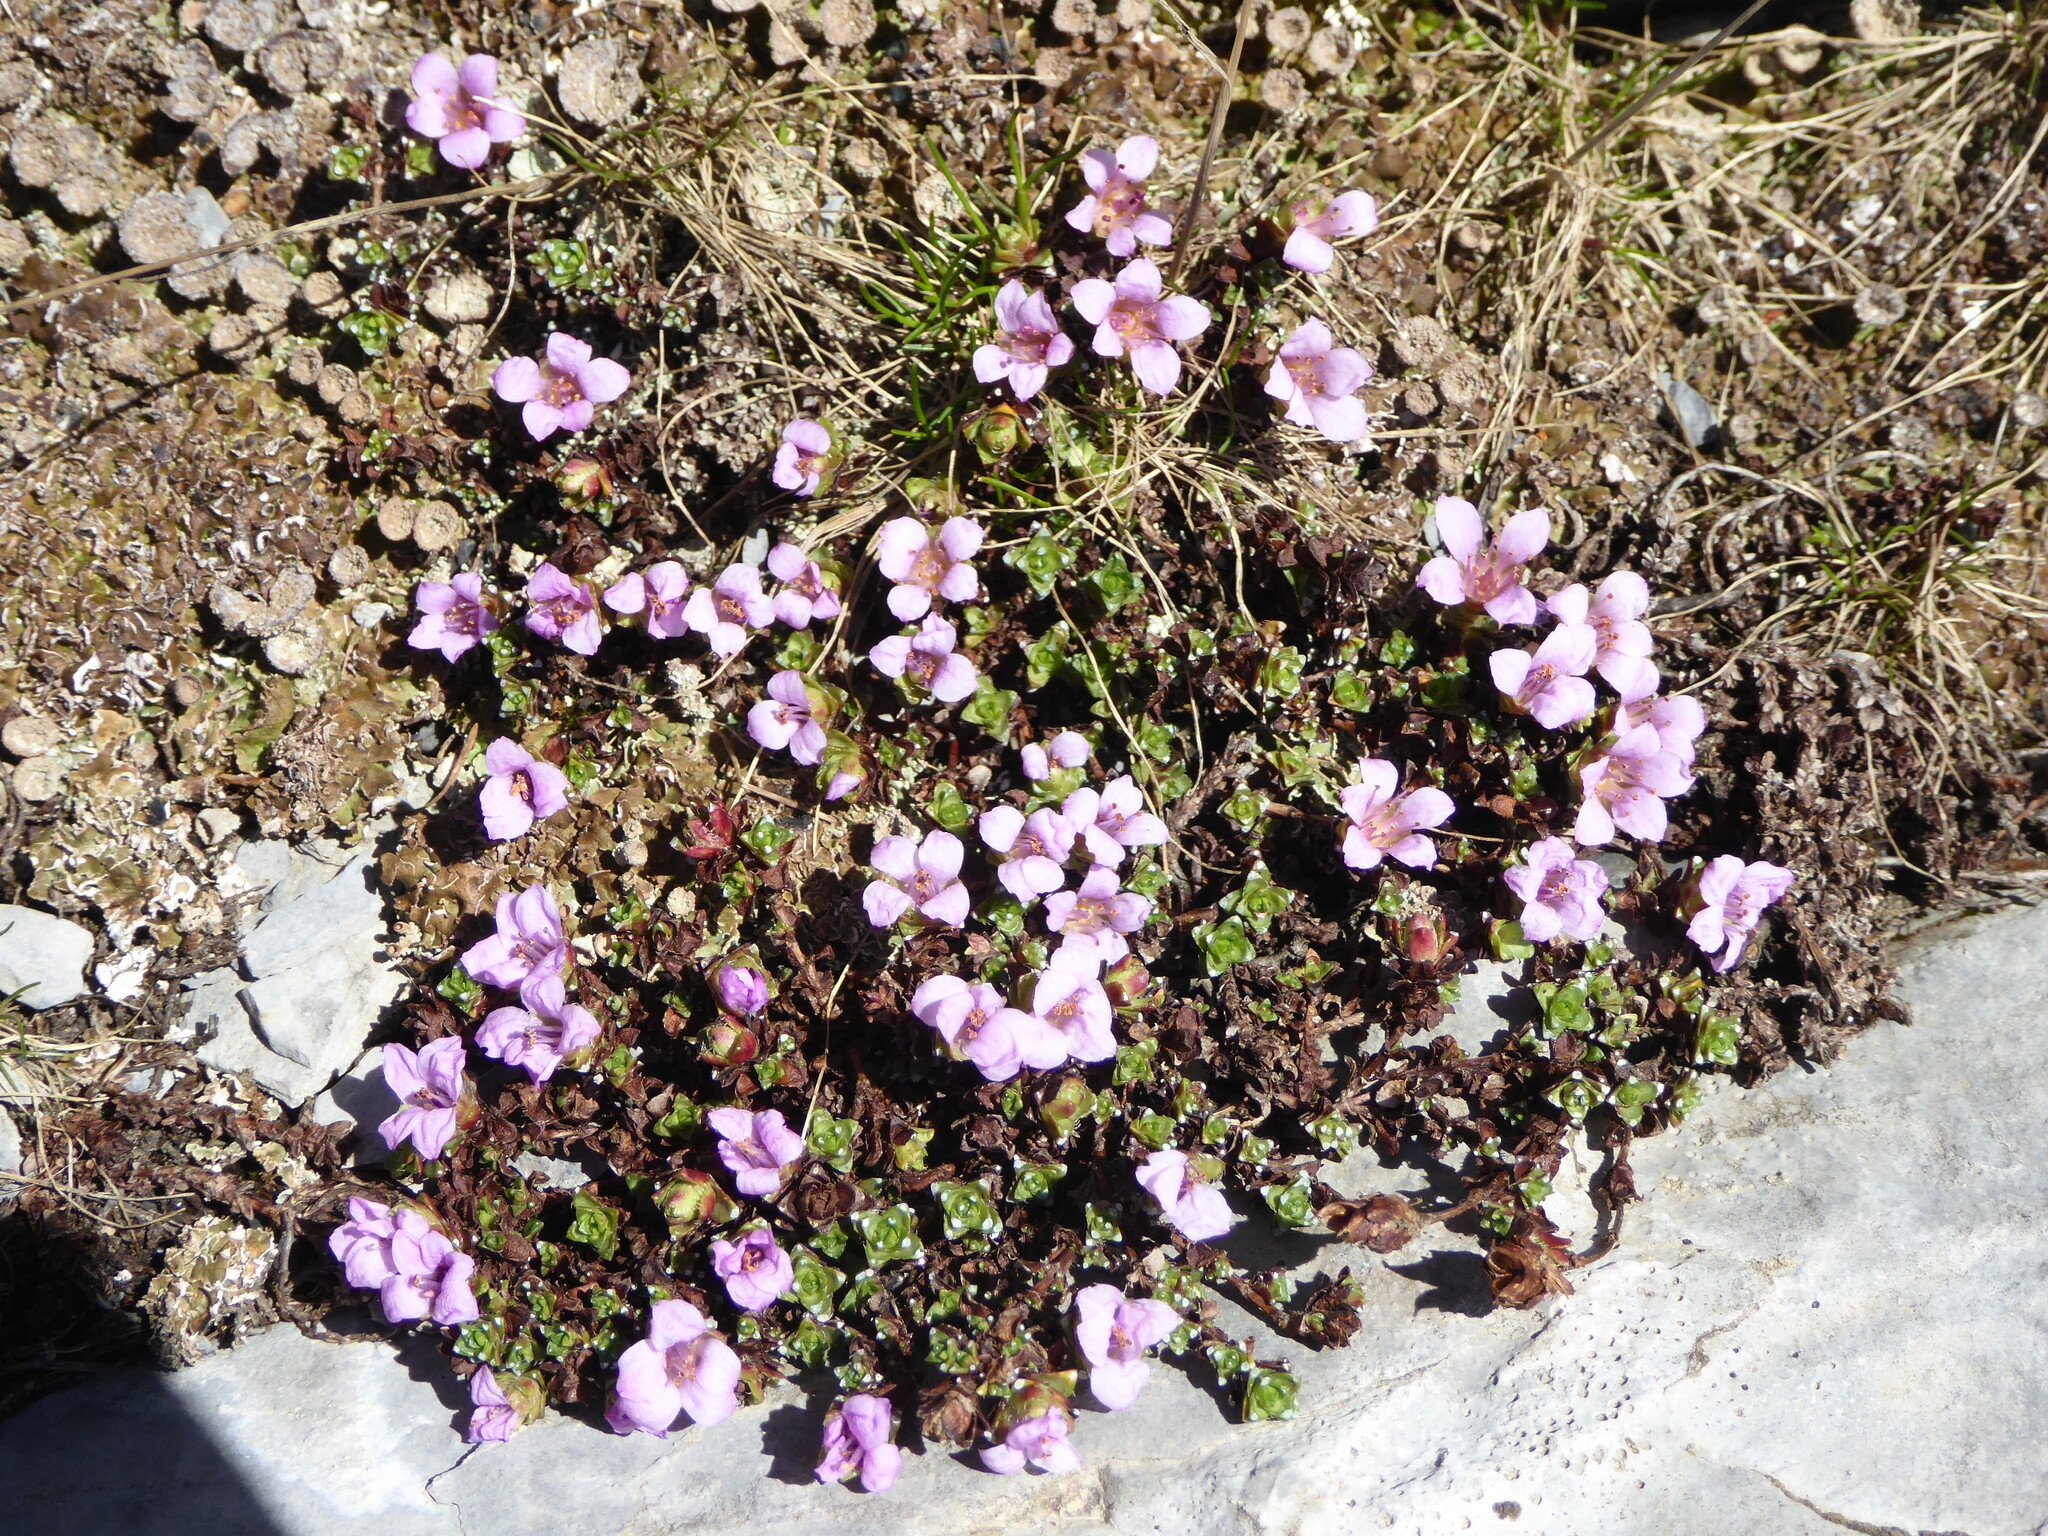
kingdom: Plantae
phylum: Tracheophyta
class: Magnoliopsida
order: Saxifragales
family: Saxifragaceae
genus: Saxifraga
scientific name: Saxifraga oppositifolia
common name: Purple saxifrage
